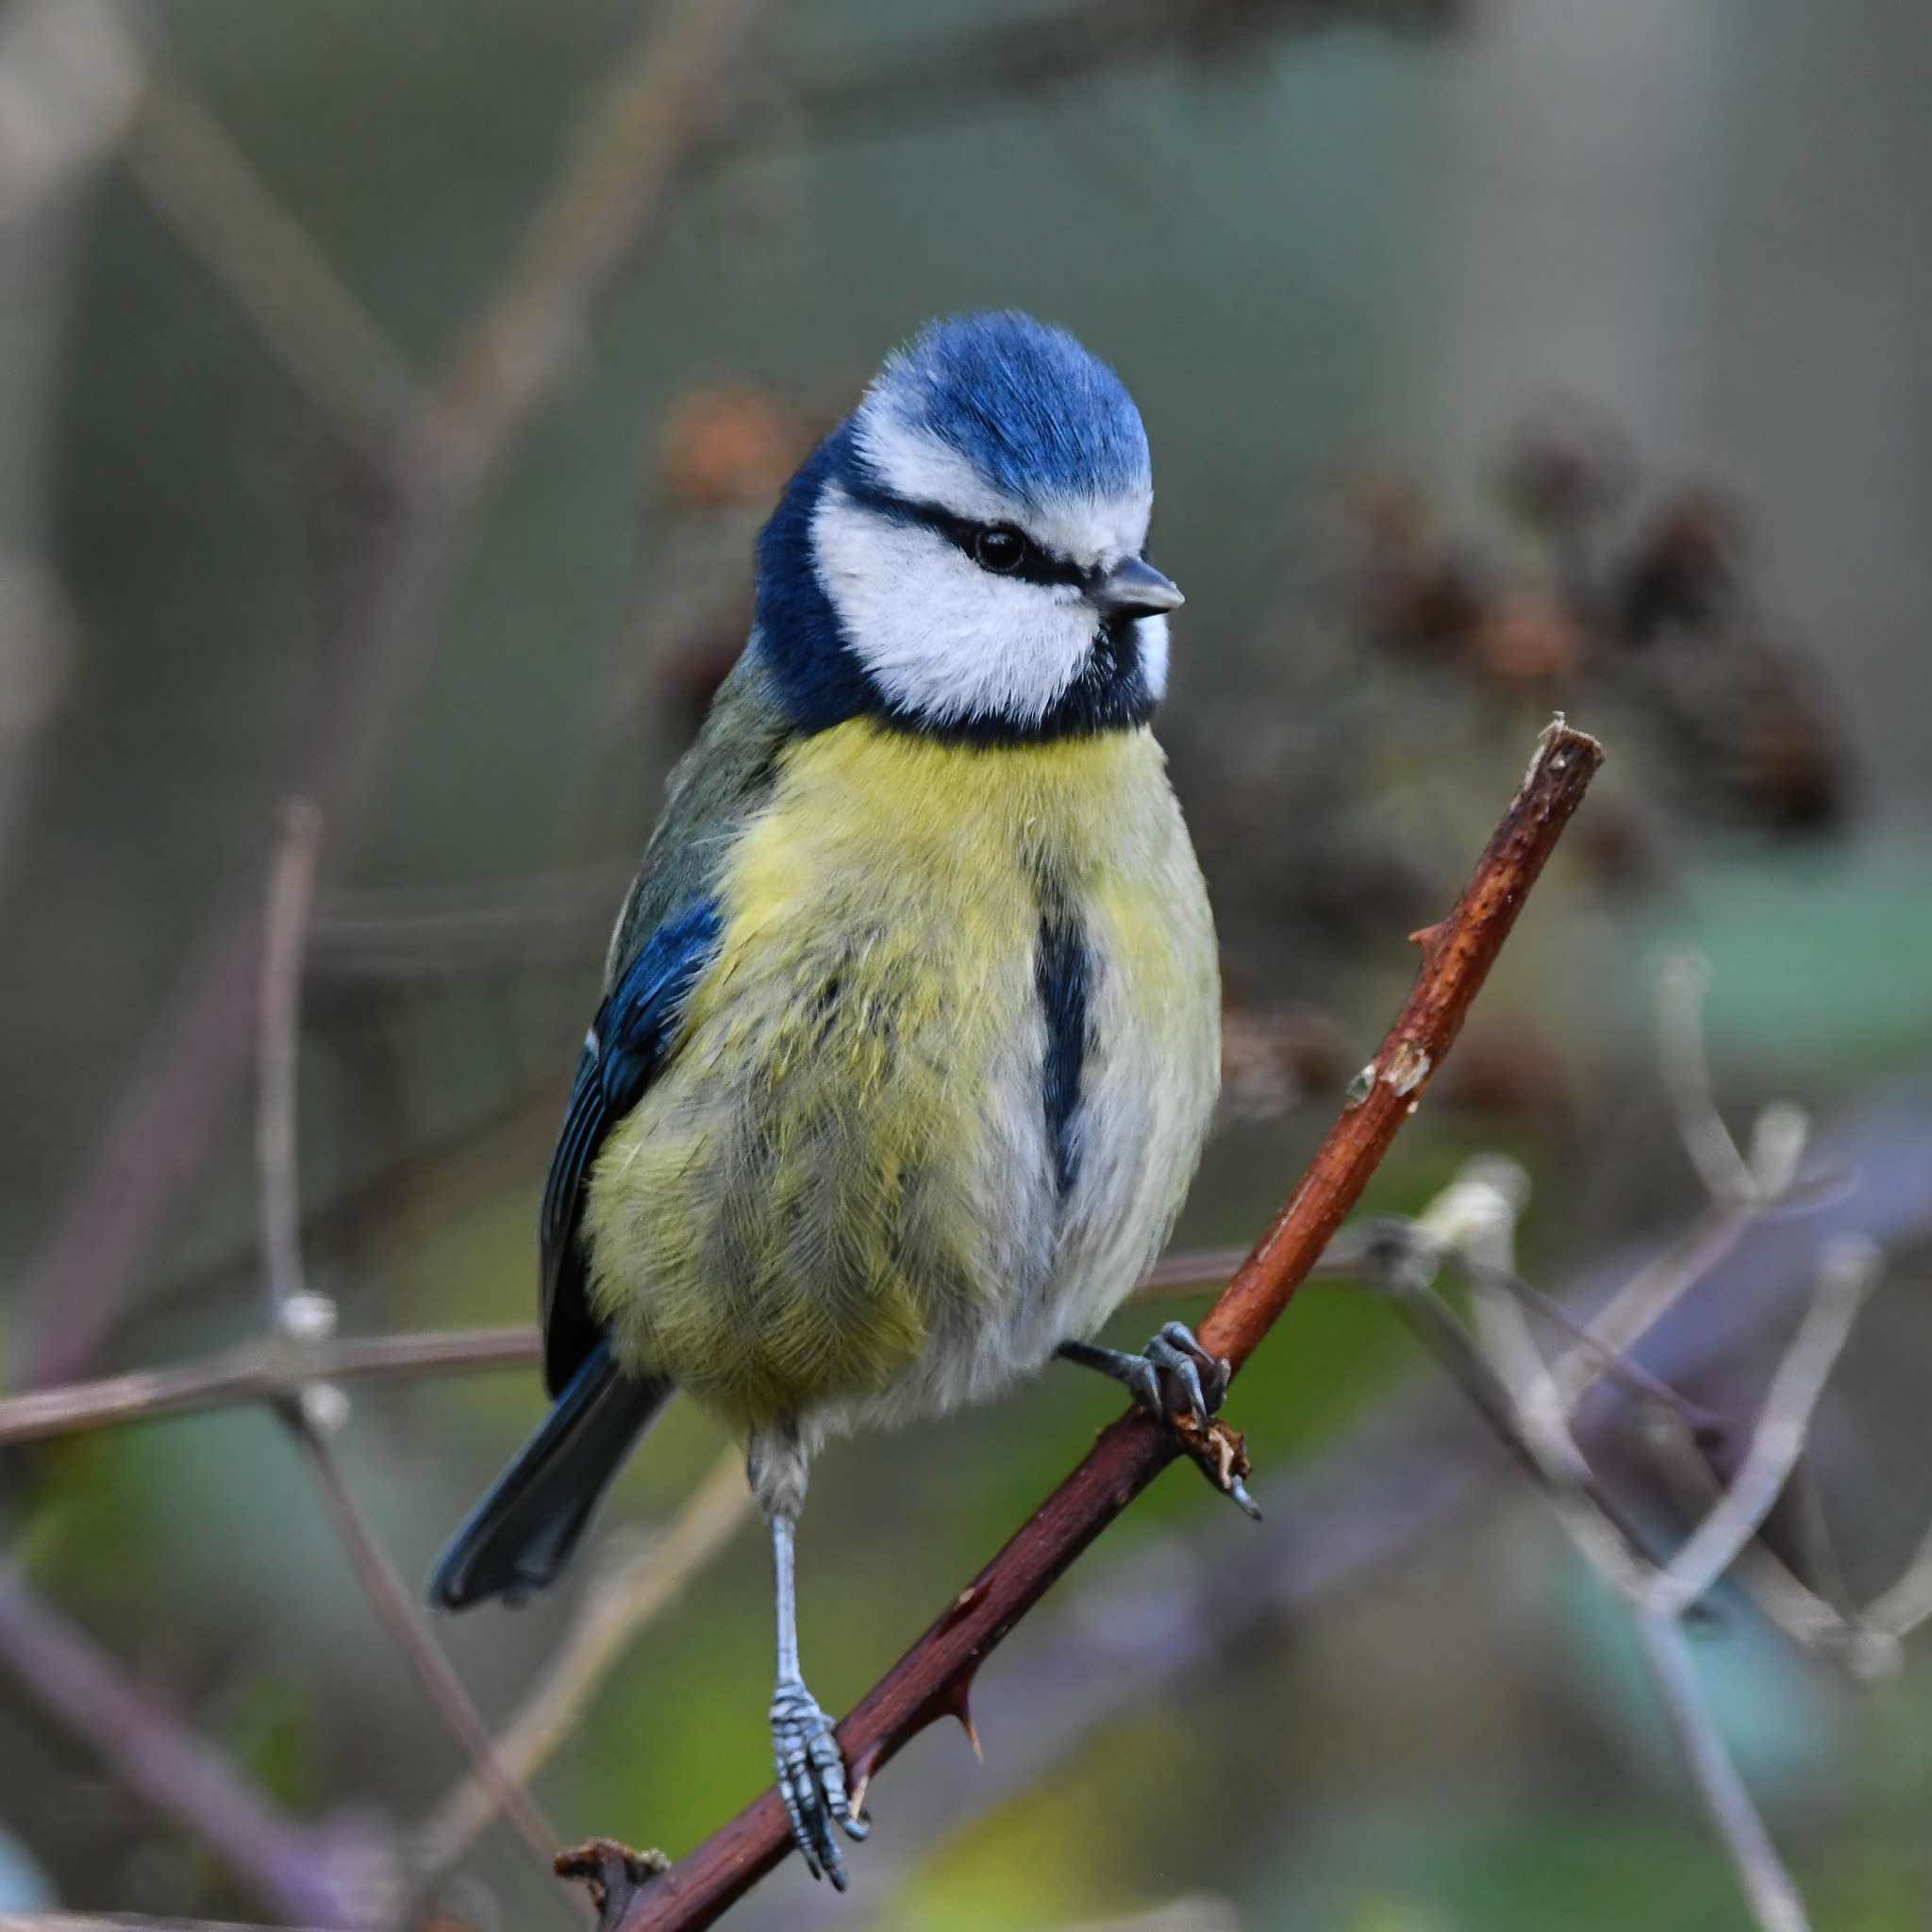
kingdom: Animalia
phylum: Chordata
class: Aves
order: Passeriformes
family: Paridae
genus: Cyanistes
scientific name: Cyanistes caeruleus
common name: Eurasian blue tit
